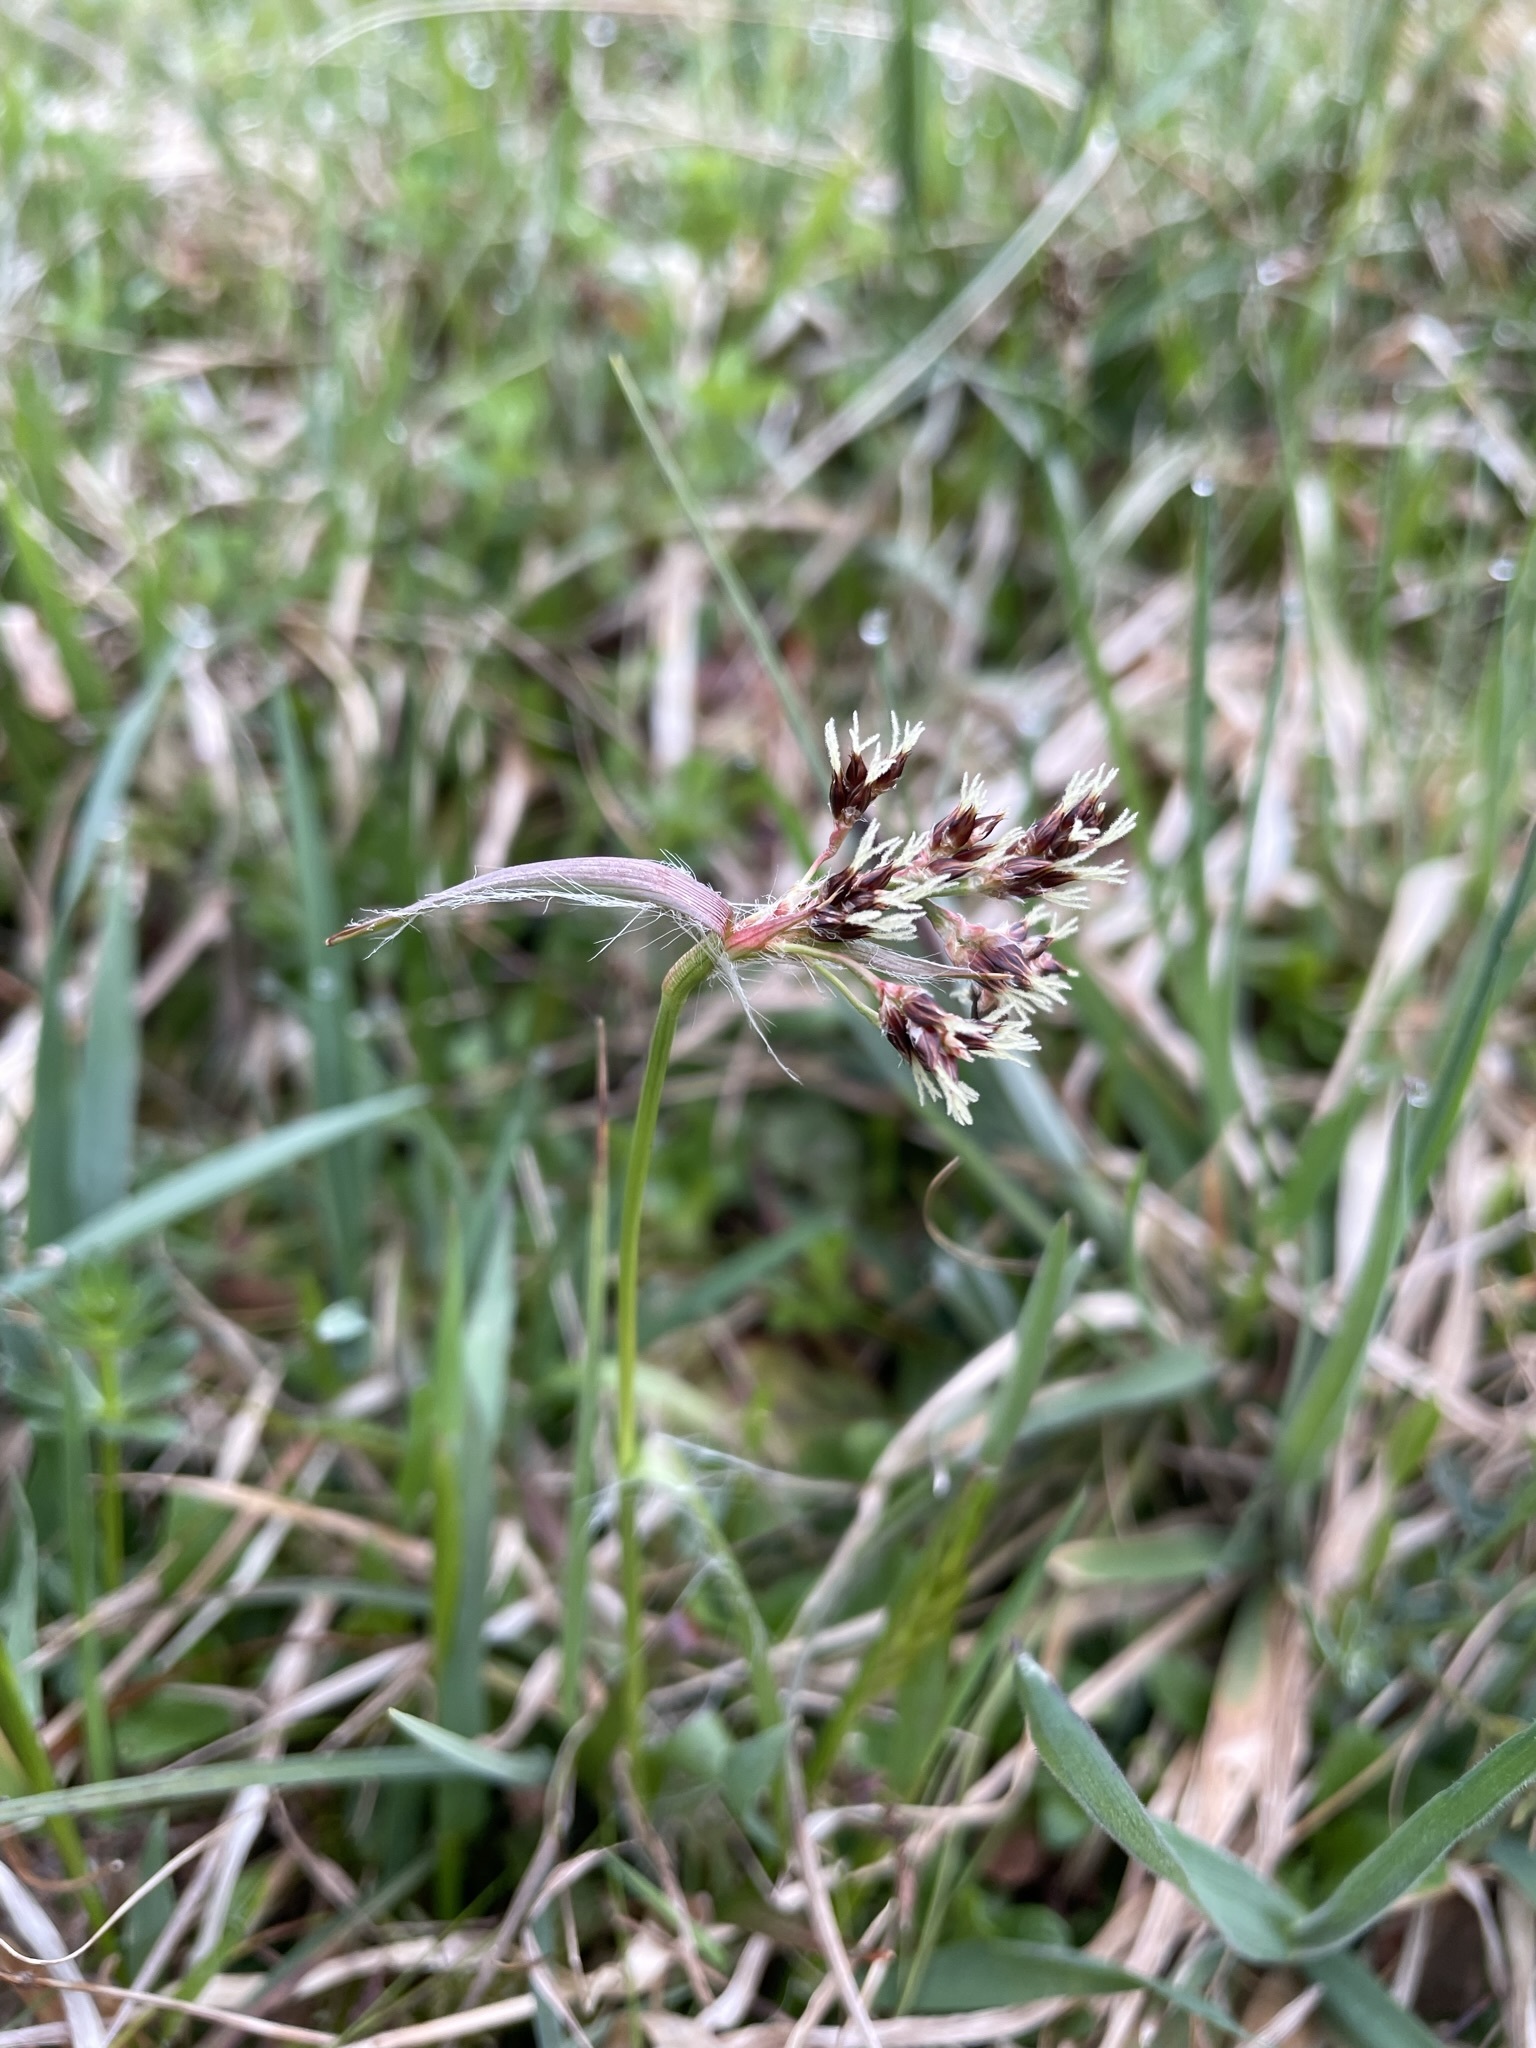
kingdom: Plantae
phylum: Tracheophyta
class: Liliopsida
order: Poales
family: Juncaceae
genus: Luzula
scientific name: Luzula campestris
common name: Field wood-rush
